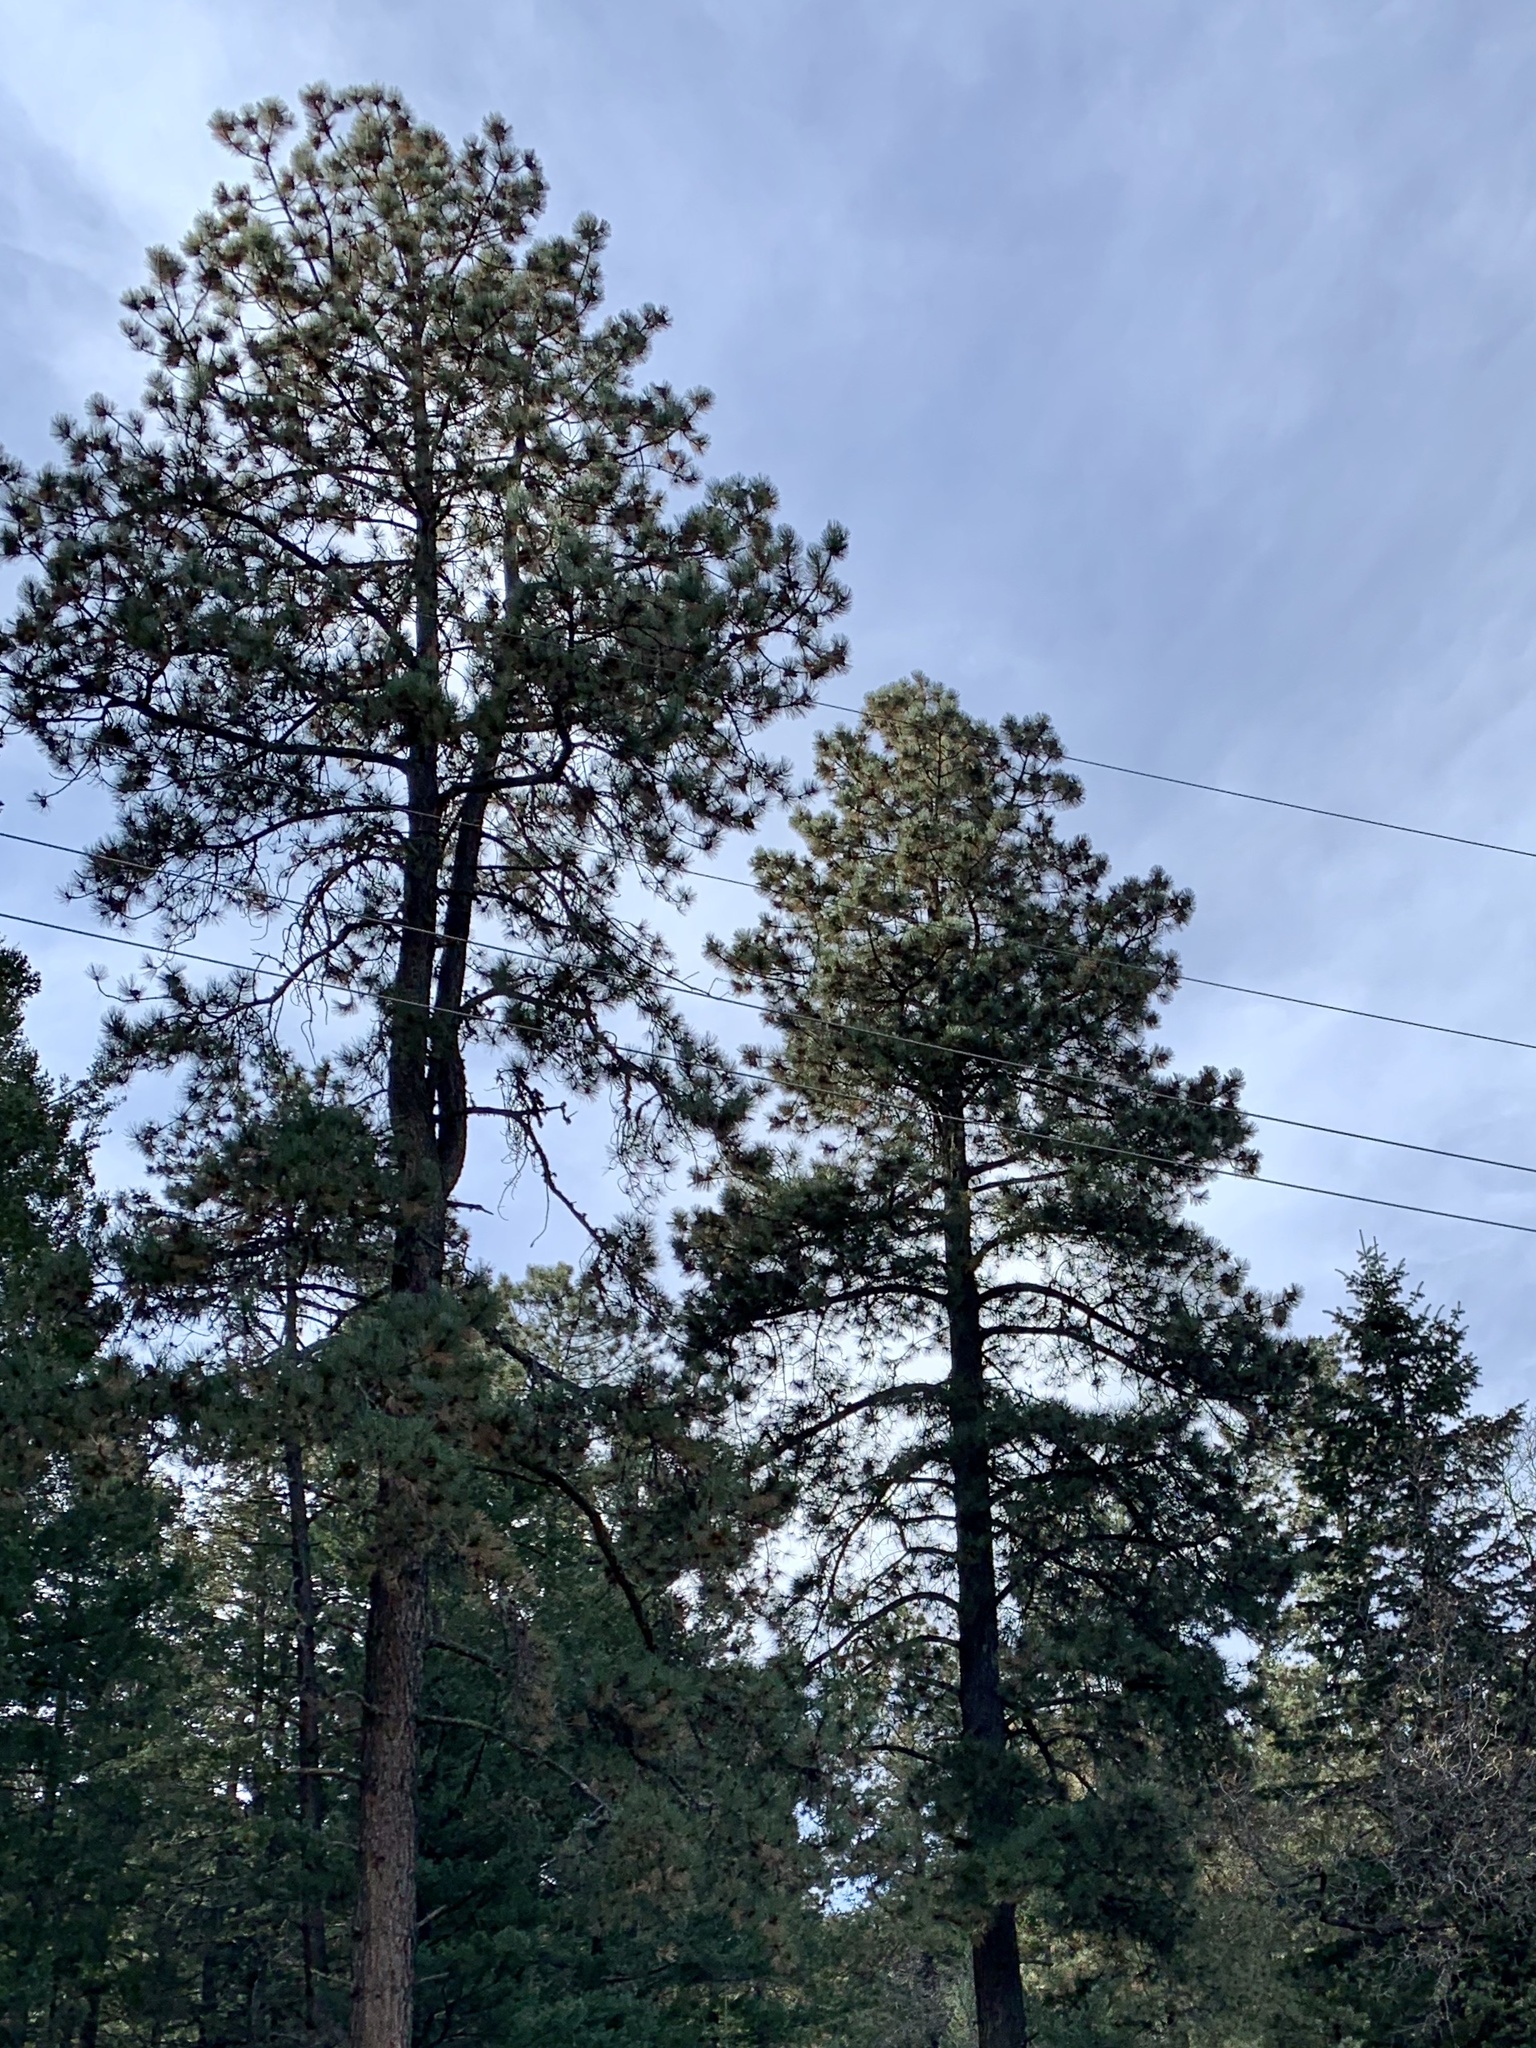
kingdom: Plantae
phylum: Tracheophyta
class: Pinopsida
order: Pinales
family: Pinaceae
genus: Pinus
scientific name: Pinus ponderosa
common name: Western yellow-pine
